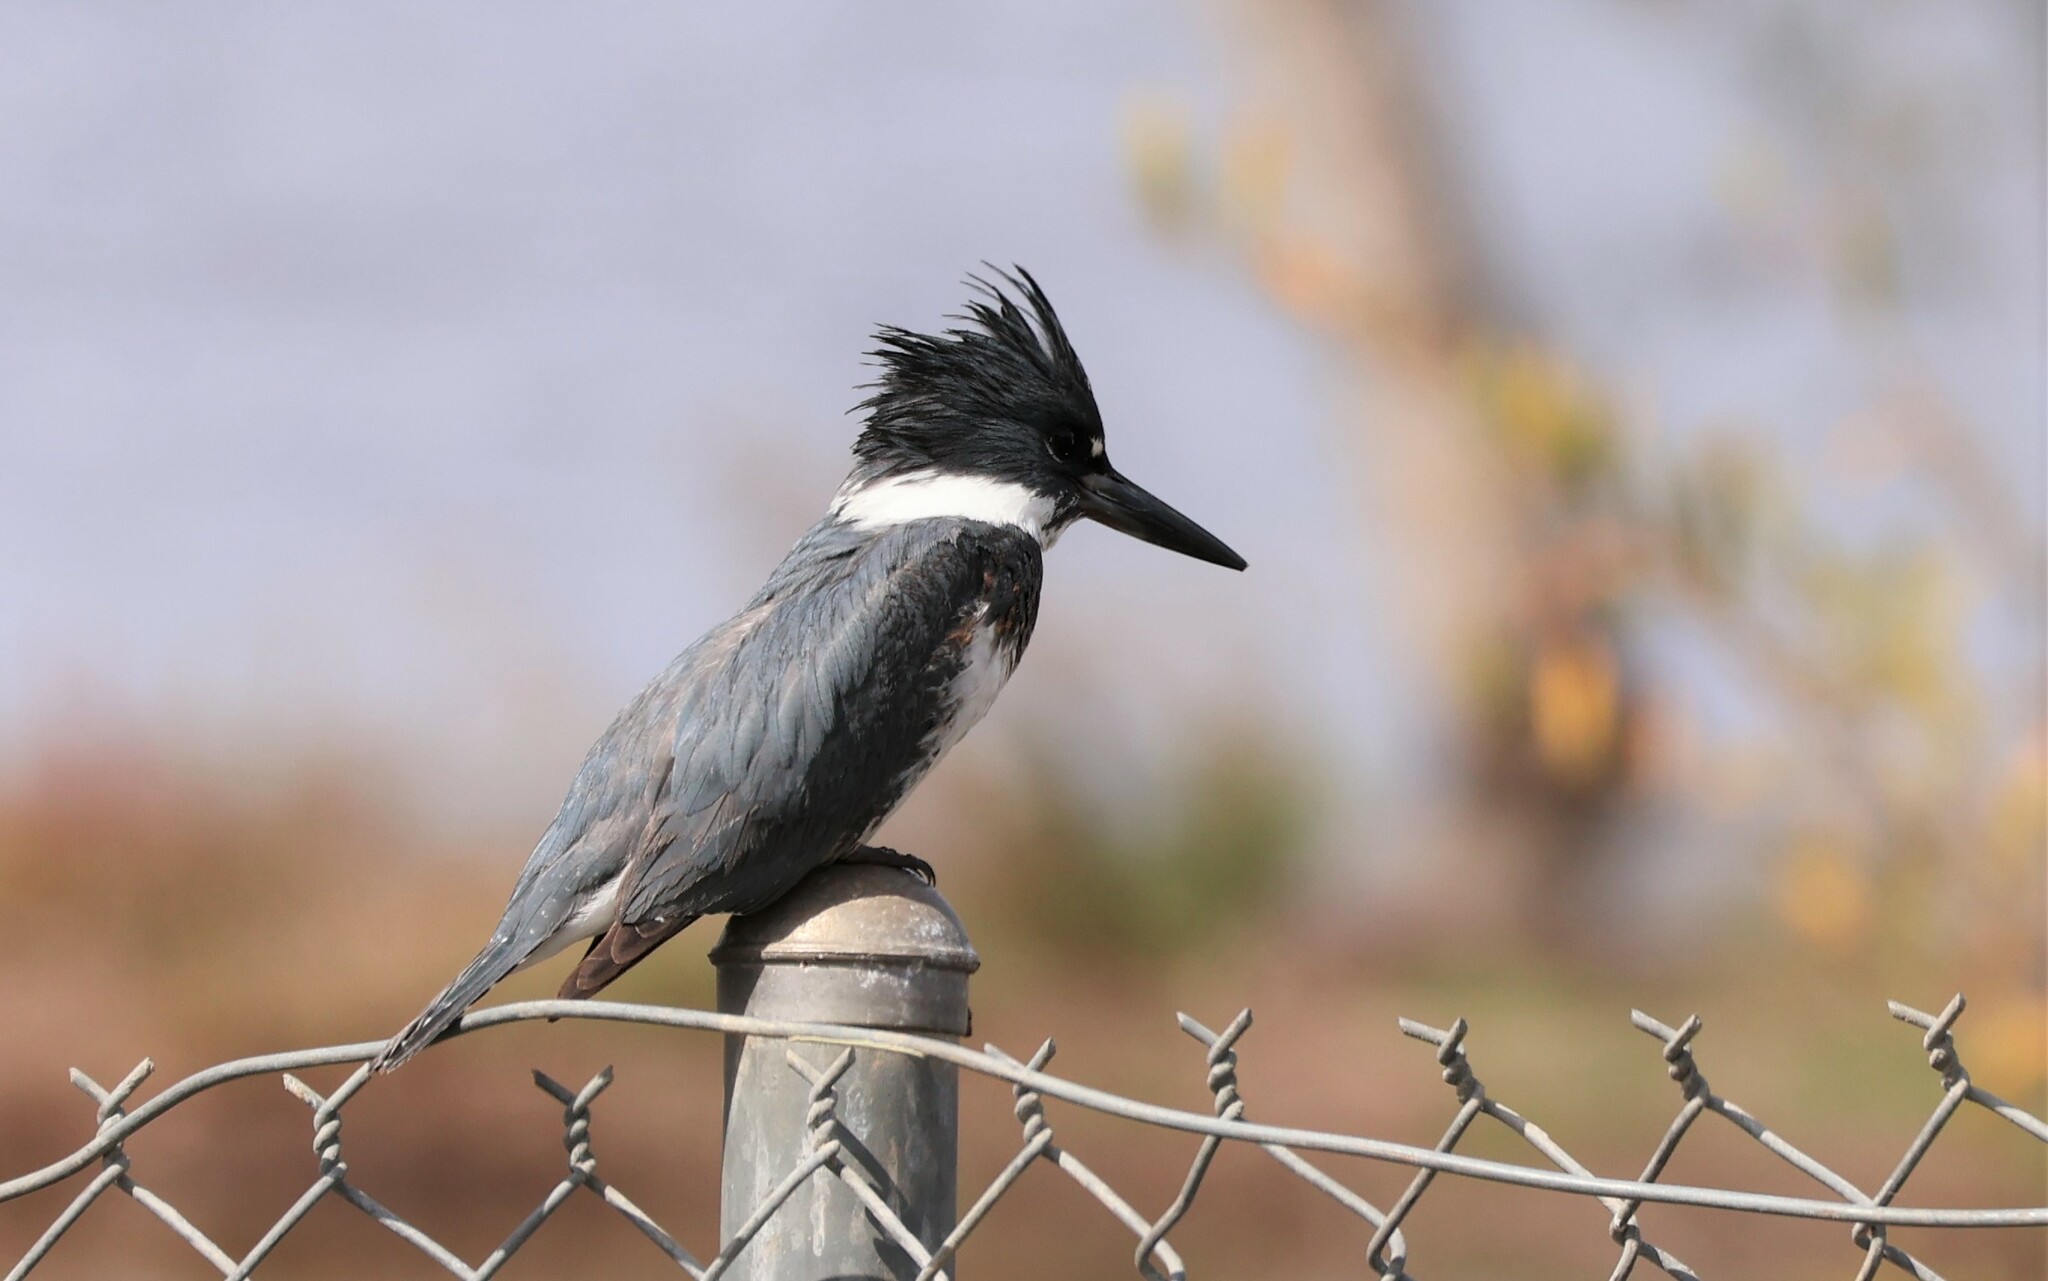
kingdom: Animalia
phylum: Chordata
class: Aves
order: Coraciiformes
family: Alcedinidae
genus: Megaceryle
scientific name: Megaceryle alcyon
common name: Belted kingfisher
